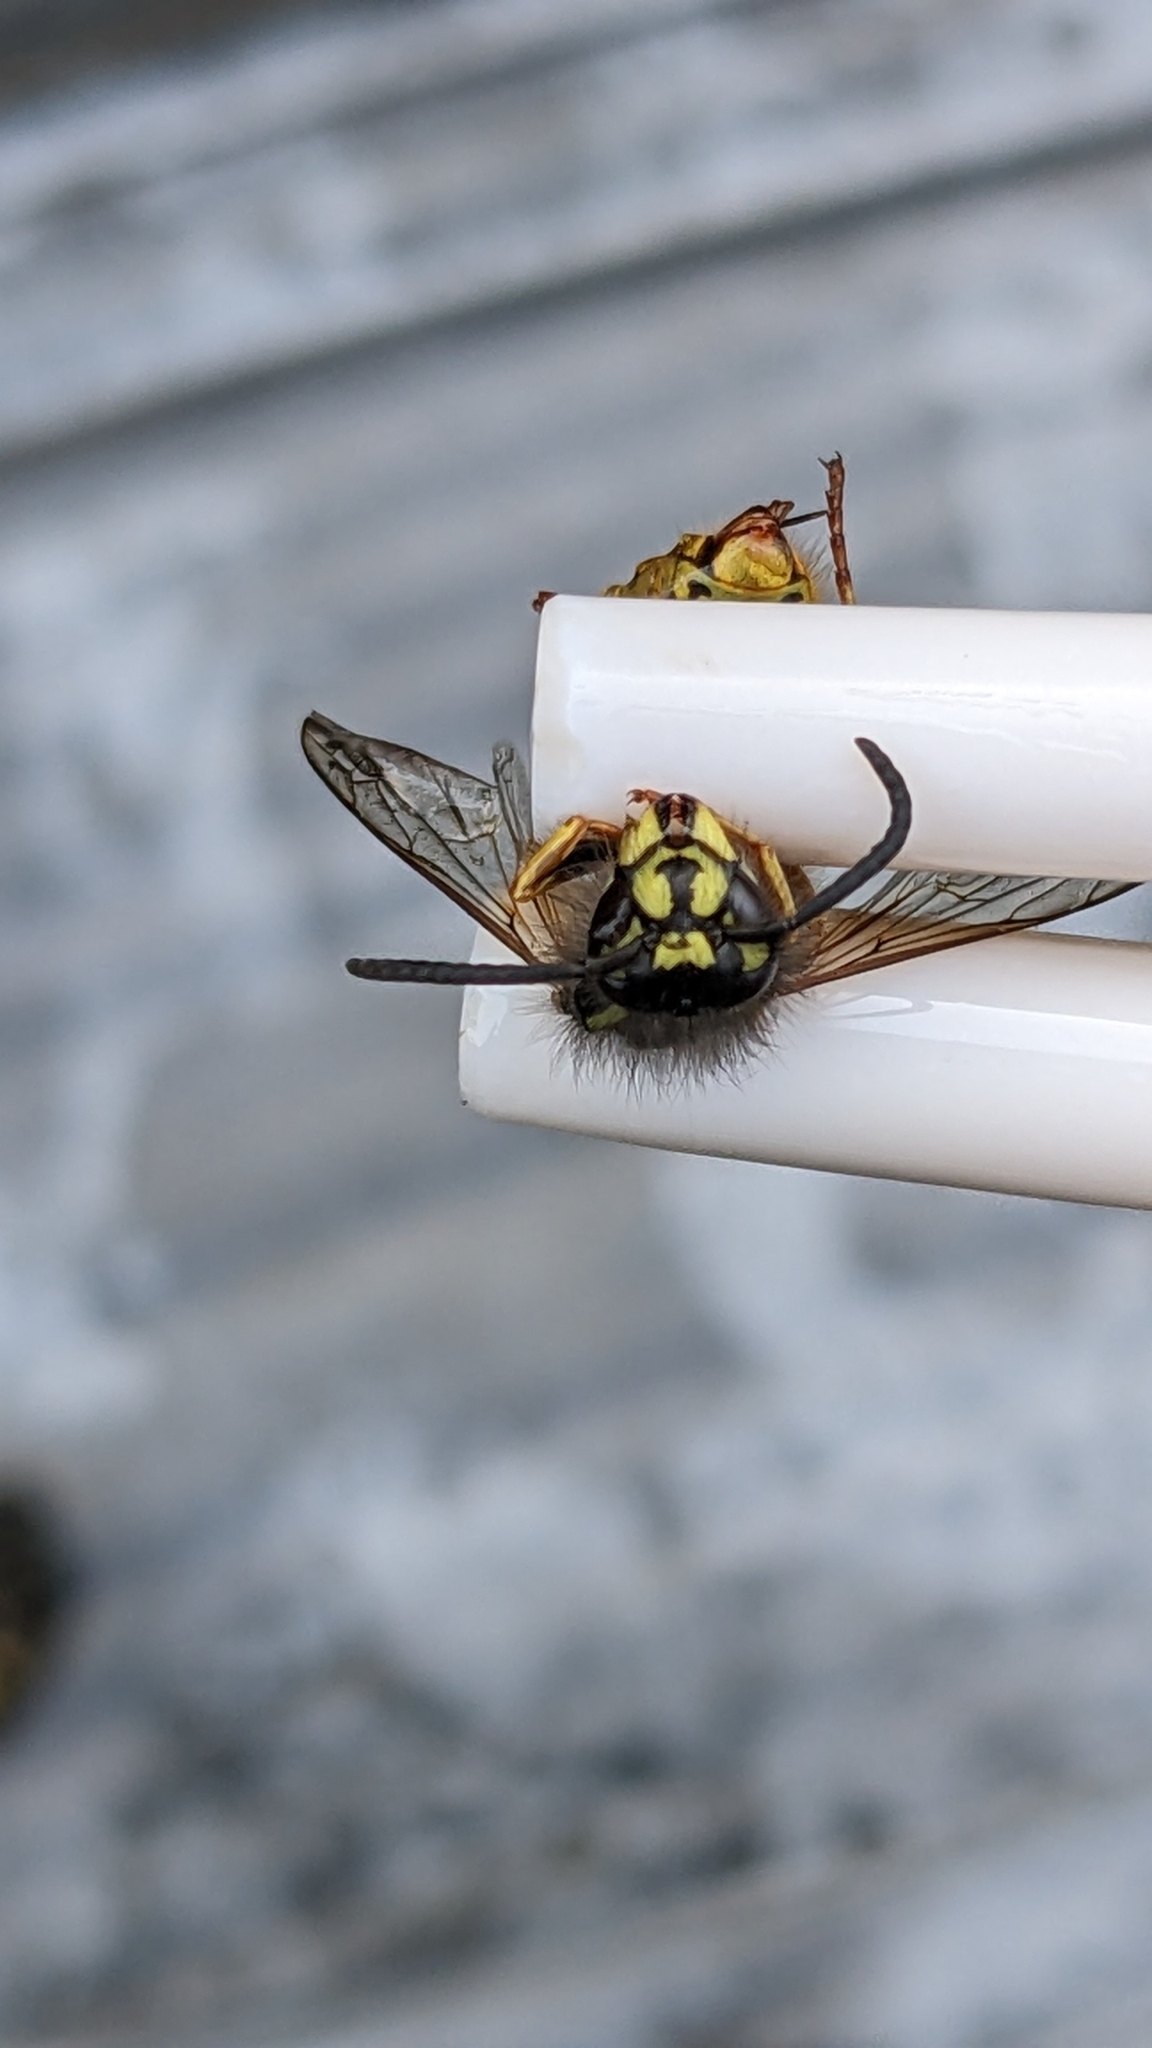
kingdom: Animalia
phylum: Arthropoda
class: Insecta
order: Hymenoptera
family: Vespidae
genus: Vespula
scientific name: Vespula vulgaris
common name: Common wasp
